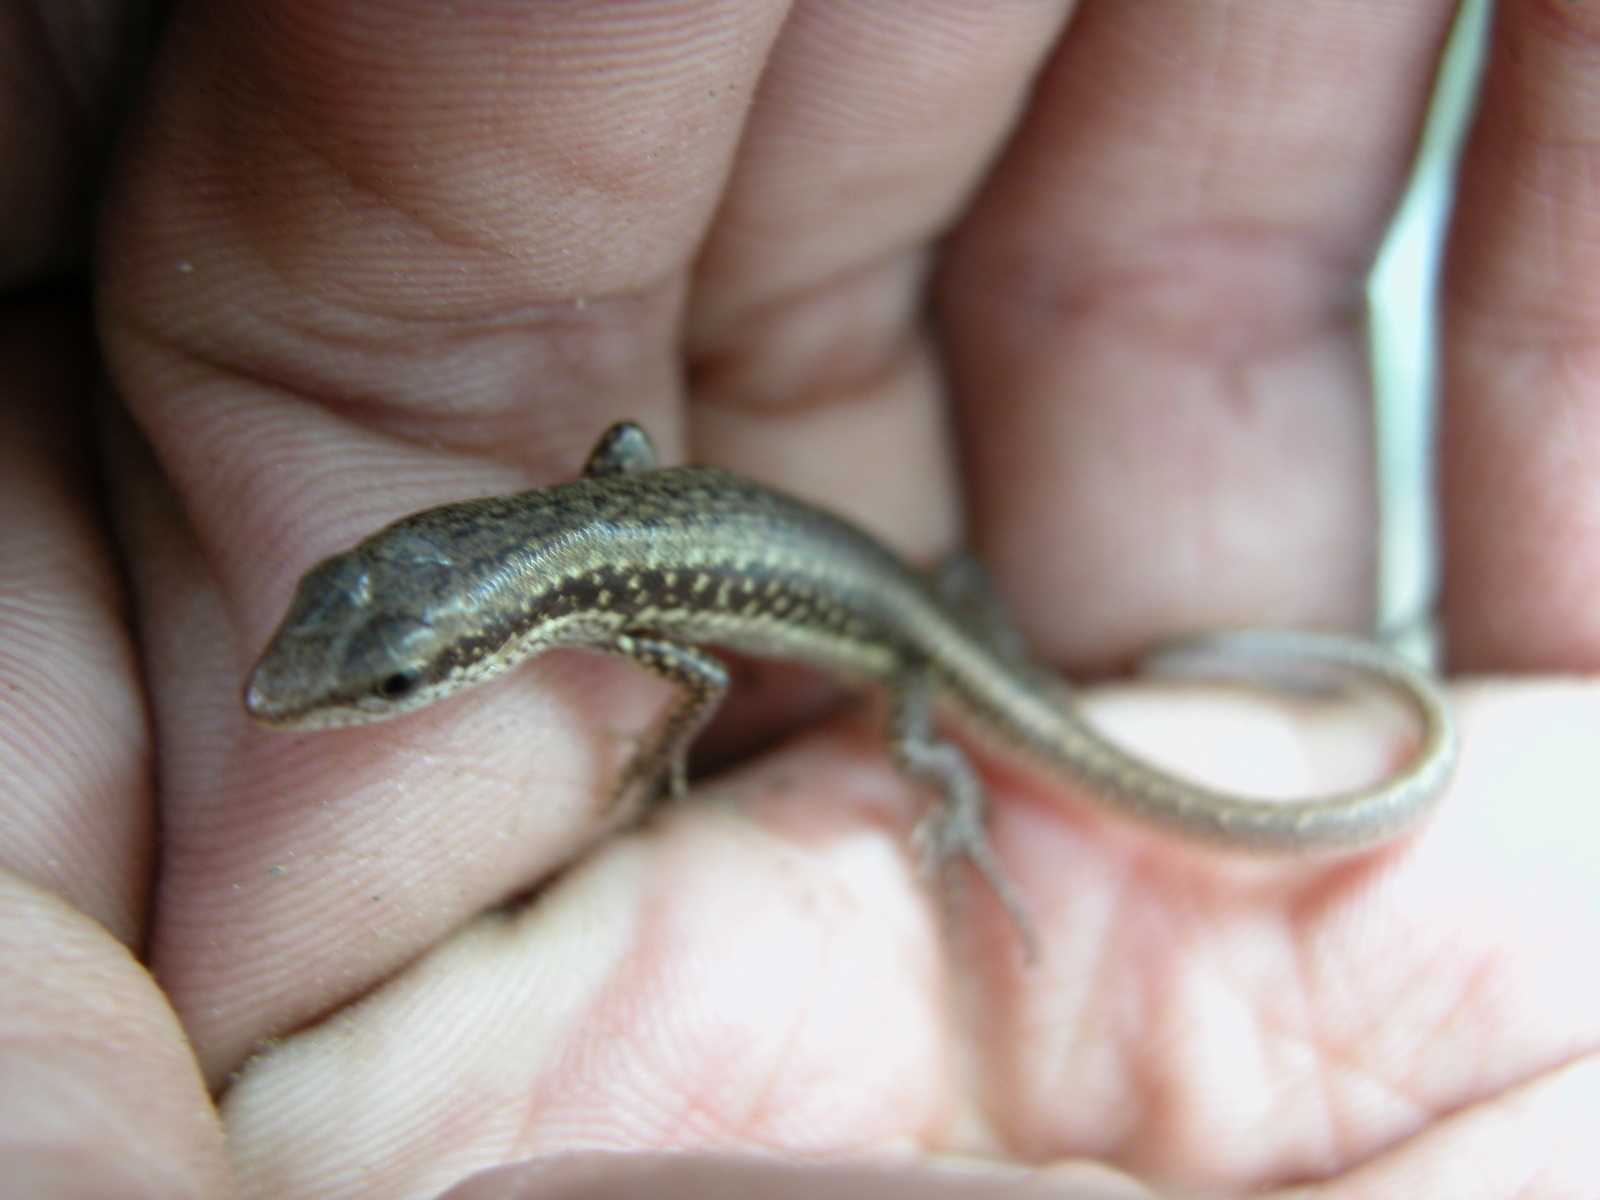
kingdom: Animalia
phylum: Chordata
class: Squamata
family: Scincidae
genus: Sphenomorphus
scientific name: Sphenomorphus indicus
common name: Himalayan forest skink
